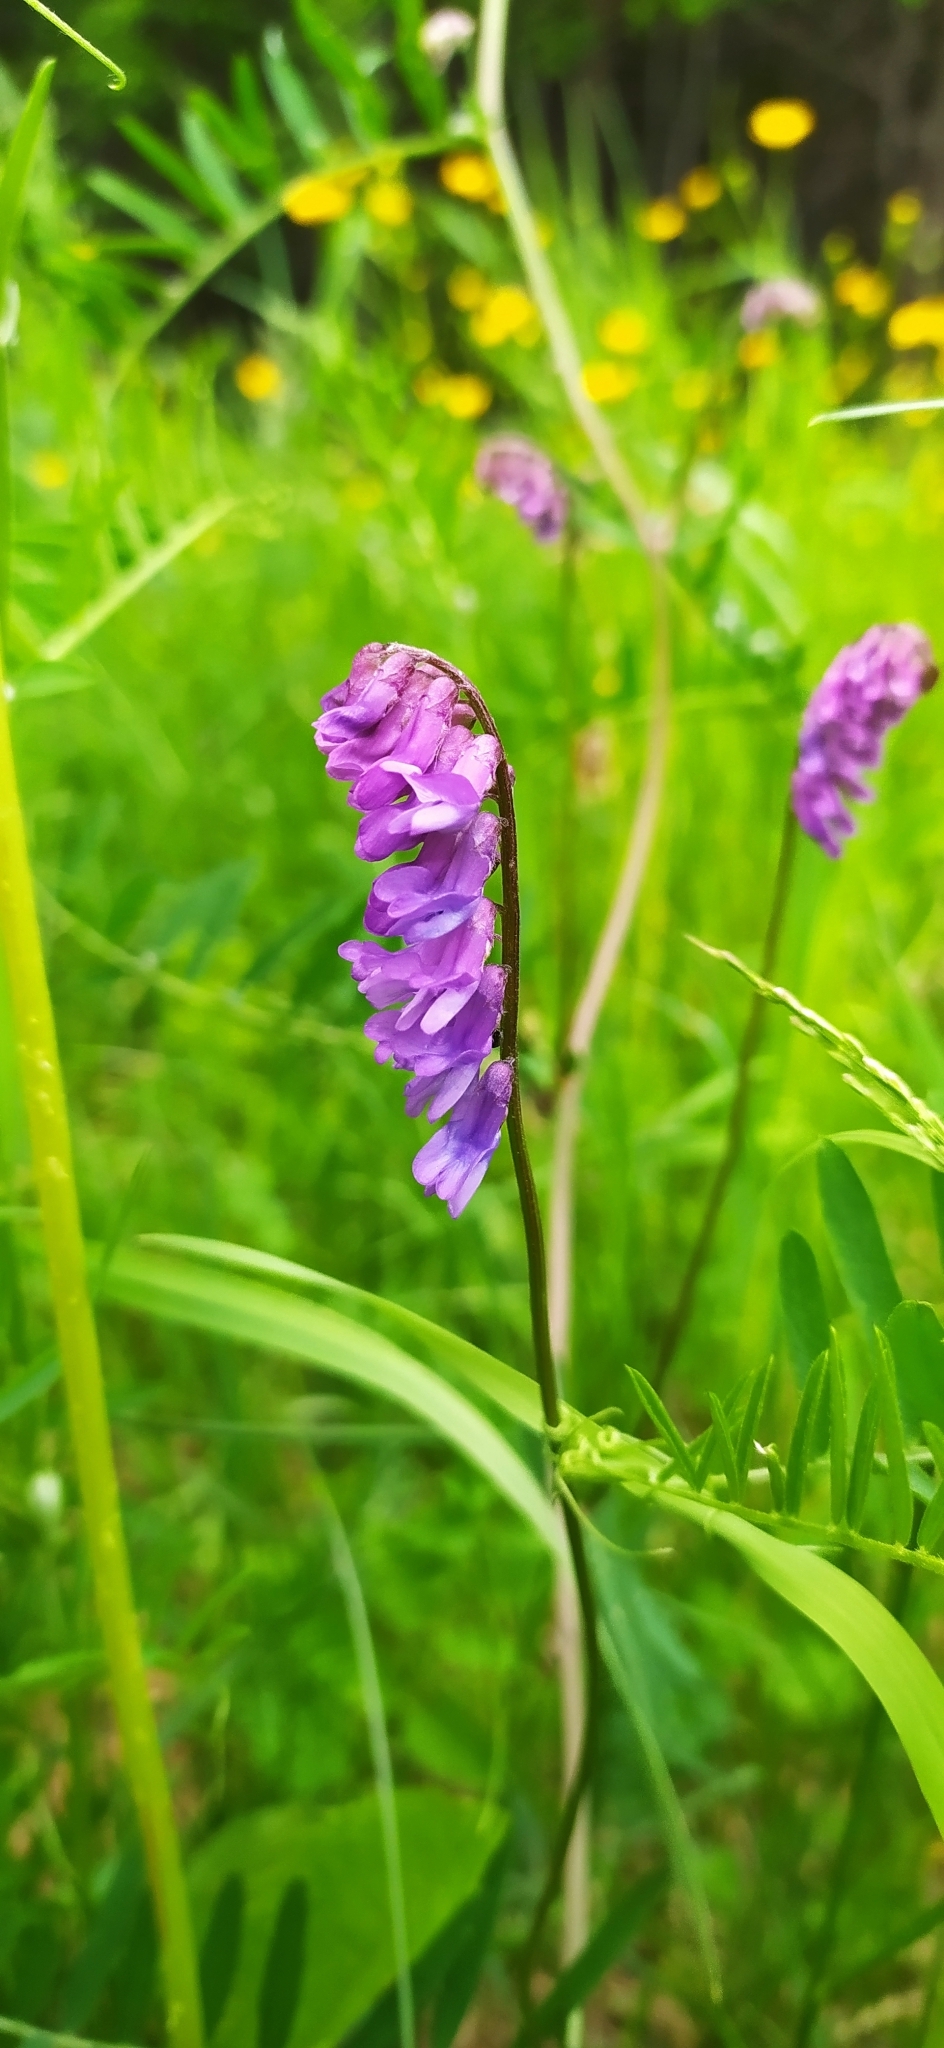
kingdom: Plantae
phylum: Tracheophyta
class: Magnoliopsida
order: Fabales
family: Fabaceae
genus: Vicia
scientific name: Vicia cracca
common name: Bird vetch
